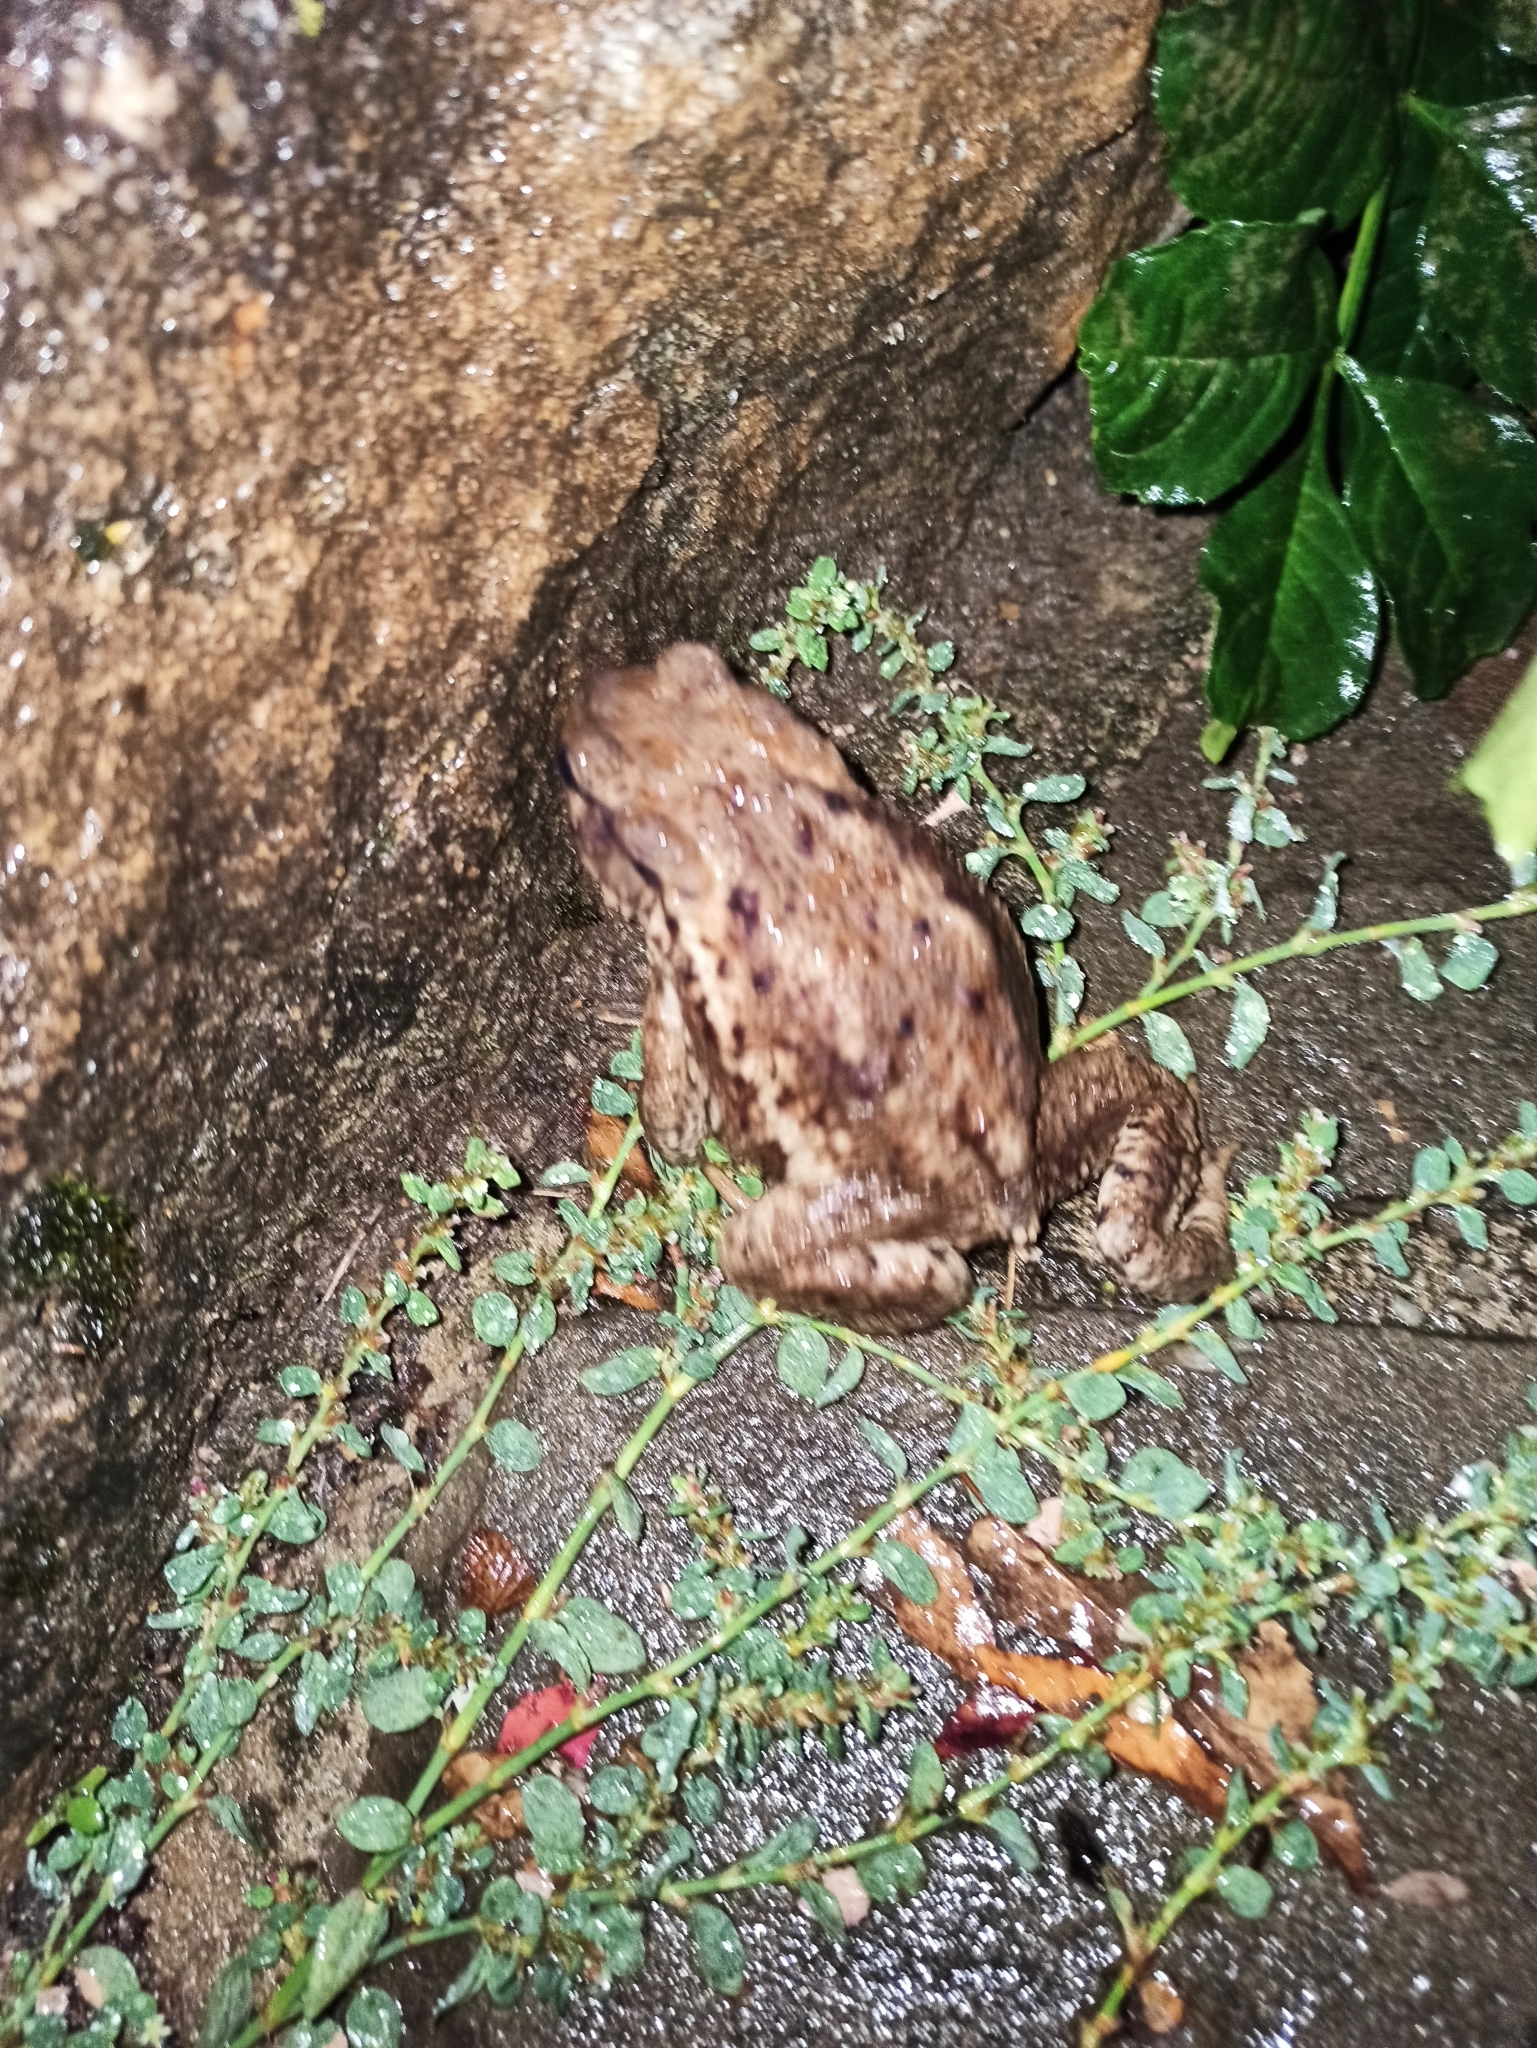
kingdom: Animalia
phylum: Chordata
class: Amphibia
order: Anura
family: Bufonidae
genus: Bufo
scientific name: Bufo verrucosissimus
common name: Caucasian toad
